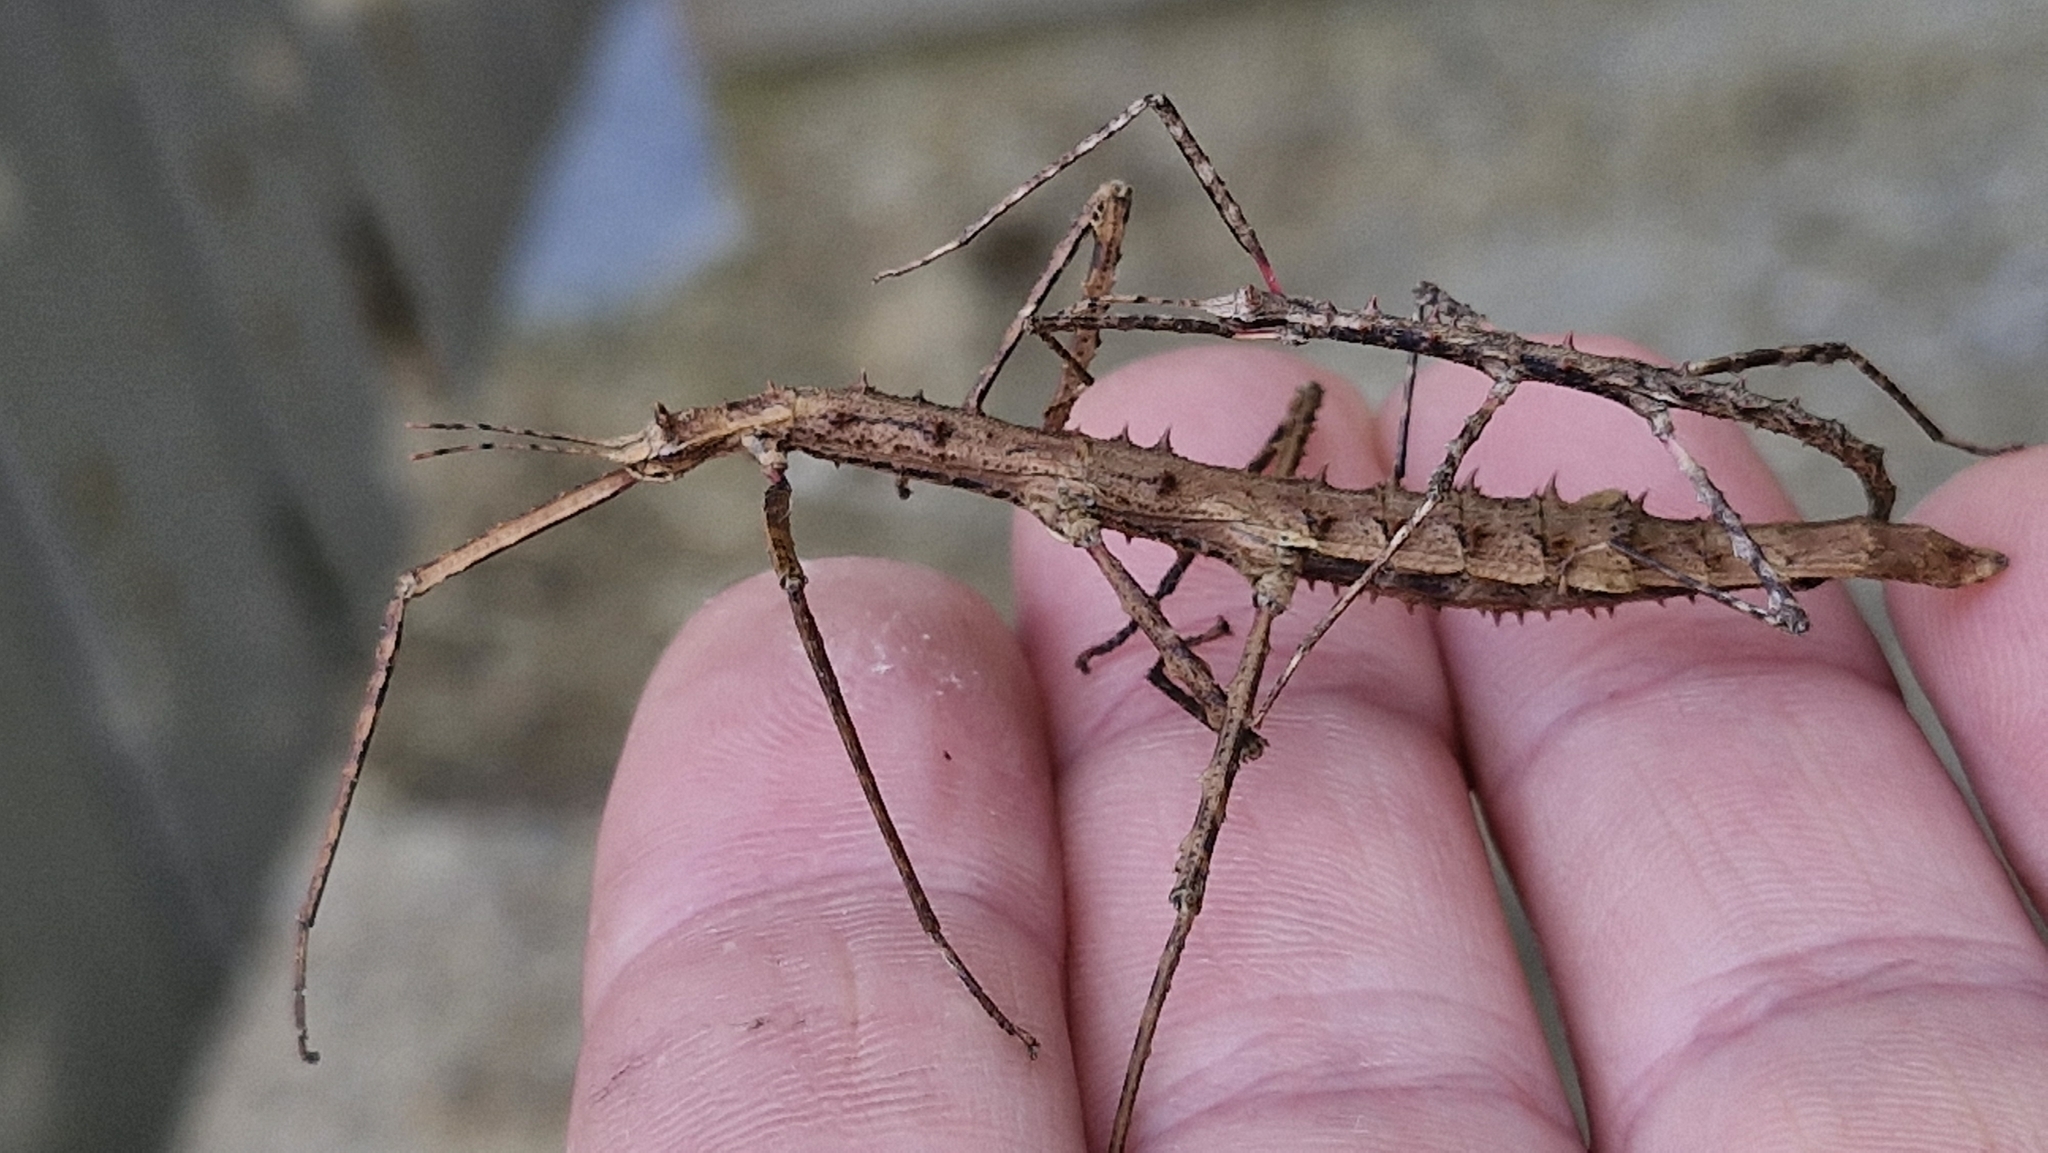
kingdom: Animalia
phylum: Arthropoda
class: Insecta
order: Phasmida
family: Phasmatidae
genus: Micrarchus
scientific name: Micrarchus hystriculeus
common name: The lesser spiny stick insect
